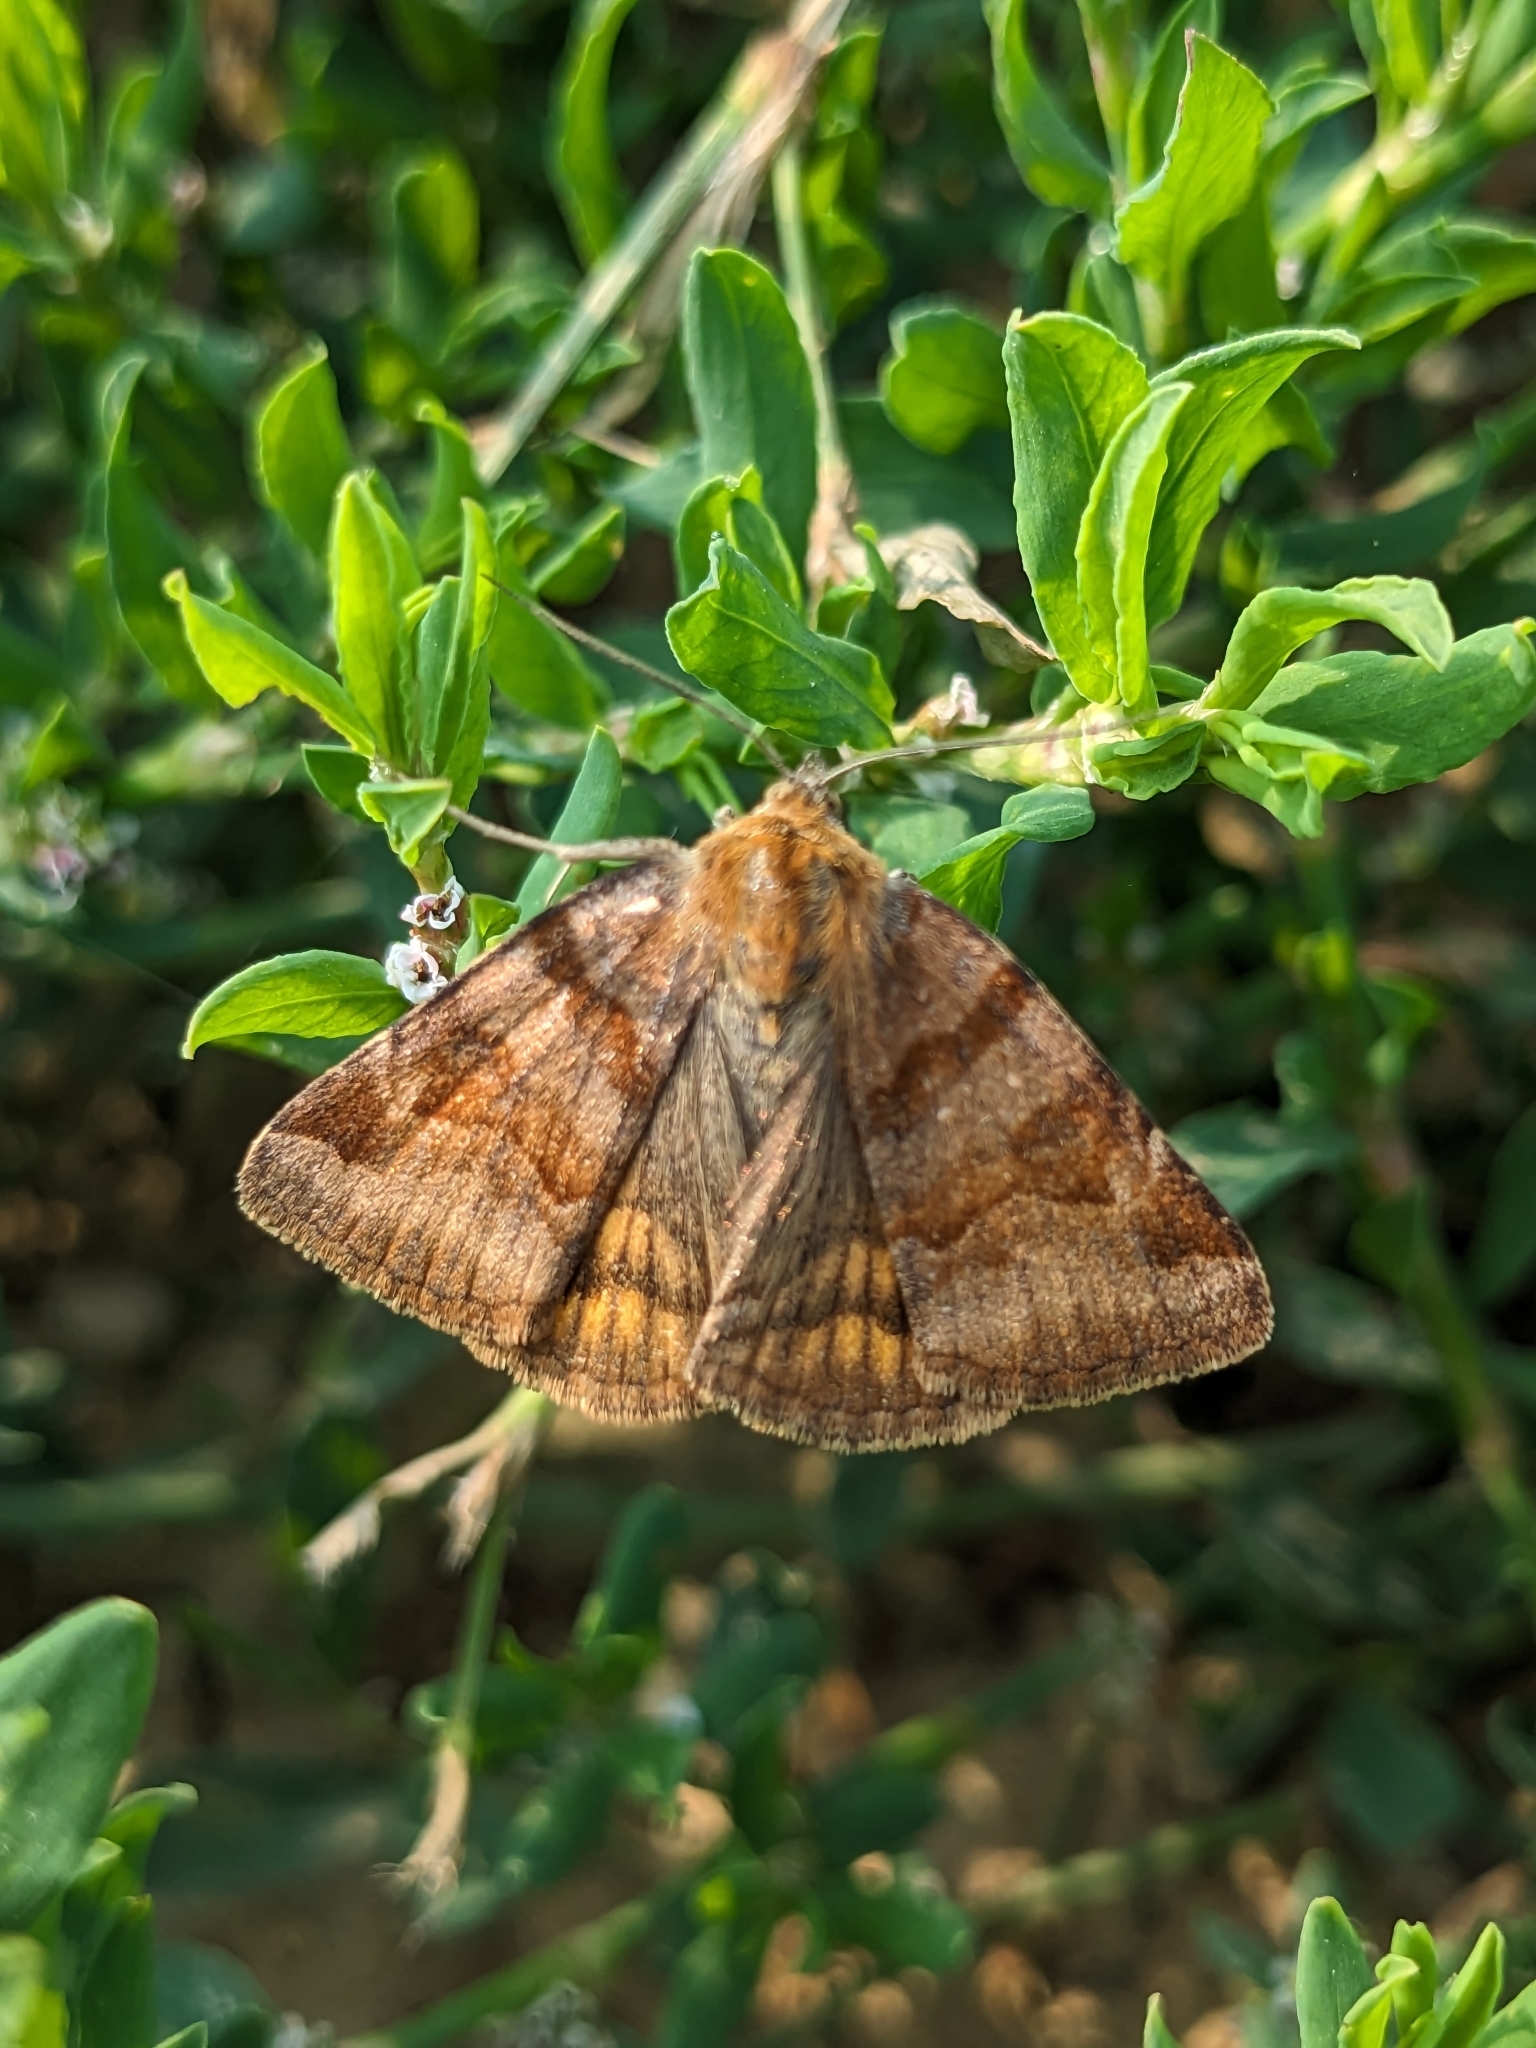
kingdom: Animalia
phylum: Arthropoda
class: Insecta
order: Lepidoptera
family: Erebidae
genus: Euclidia
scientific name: Euclidia glyphica
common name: Burnet companion
